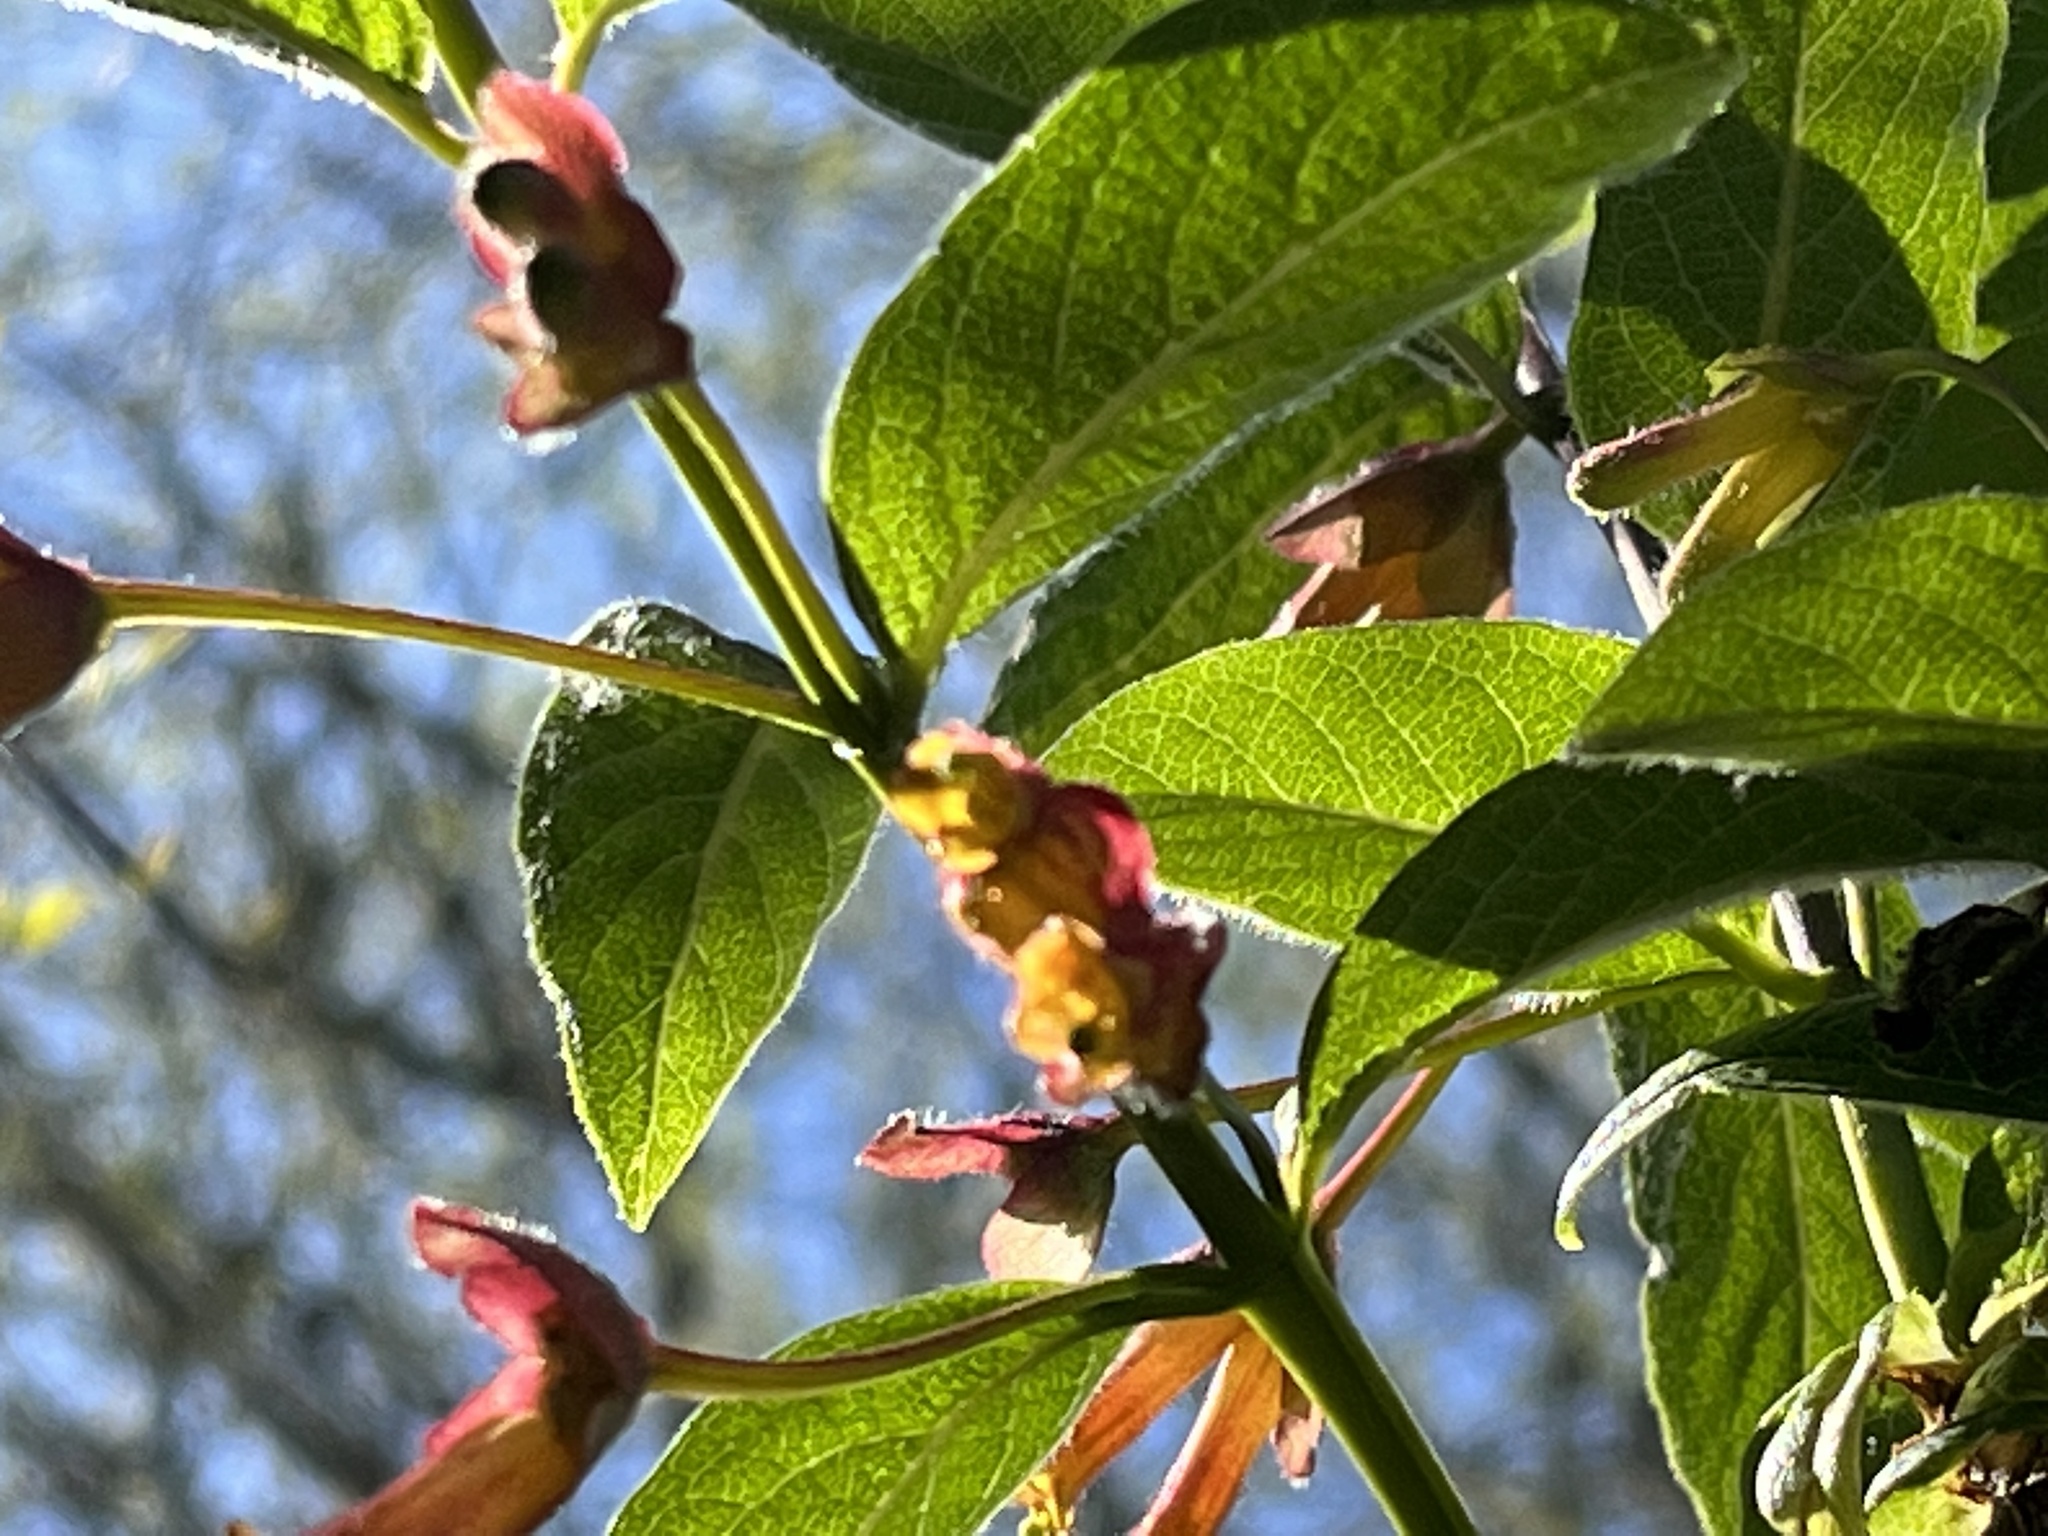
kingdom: Plantae
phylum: Tracheophyta
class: Magnoliopsida
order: Dipsacales
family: Caprifoliaceae
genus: Lonicera
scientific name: Lonicera involucrata
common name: Californian honeysuckle
